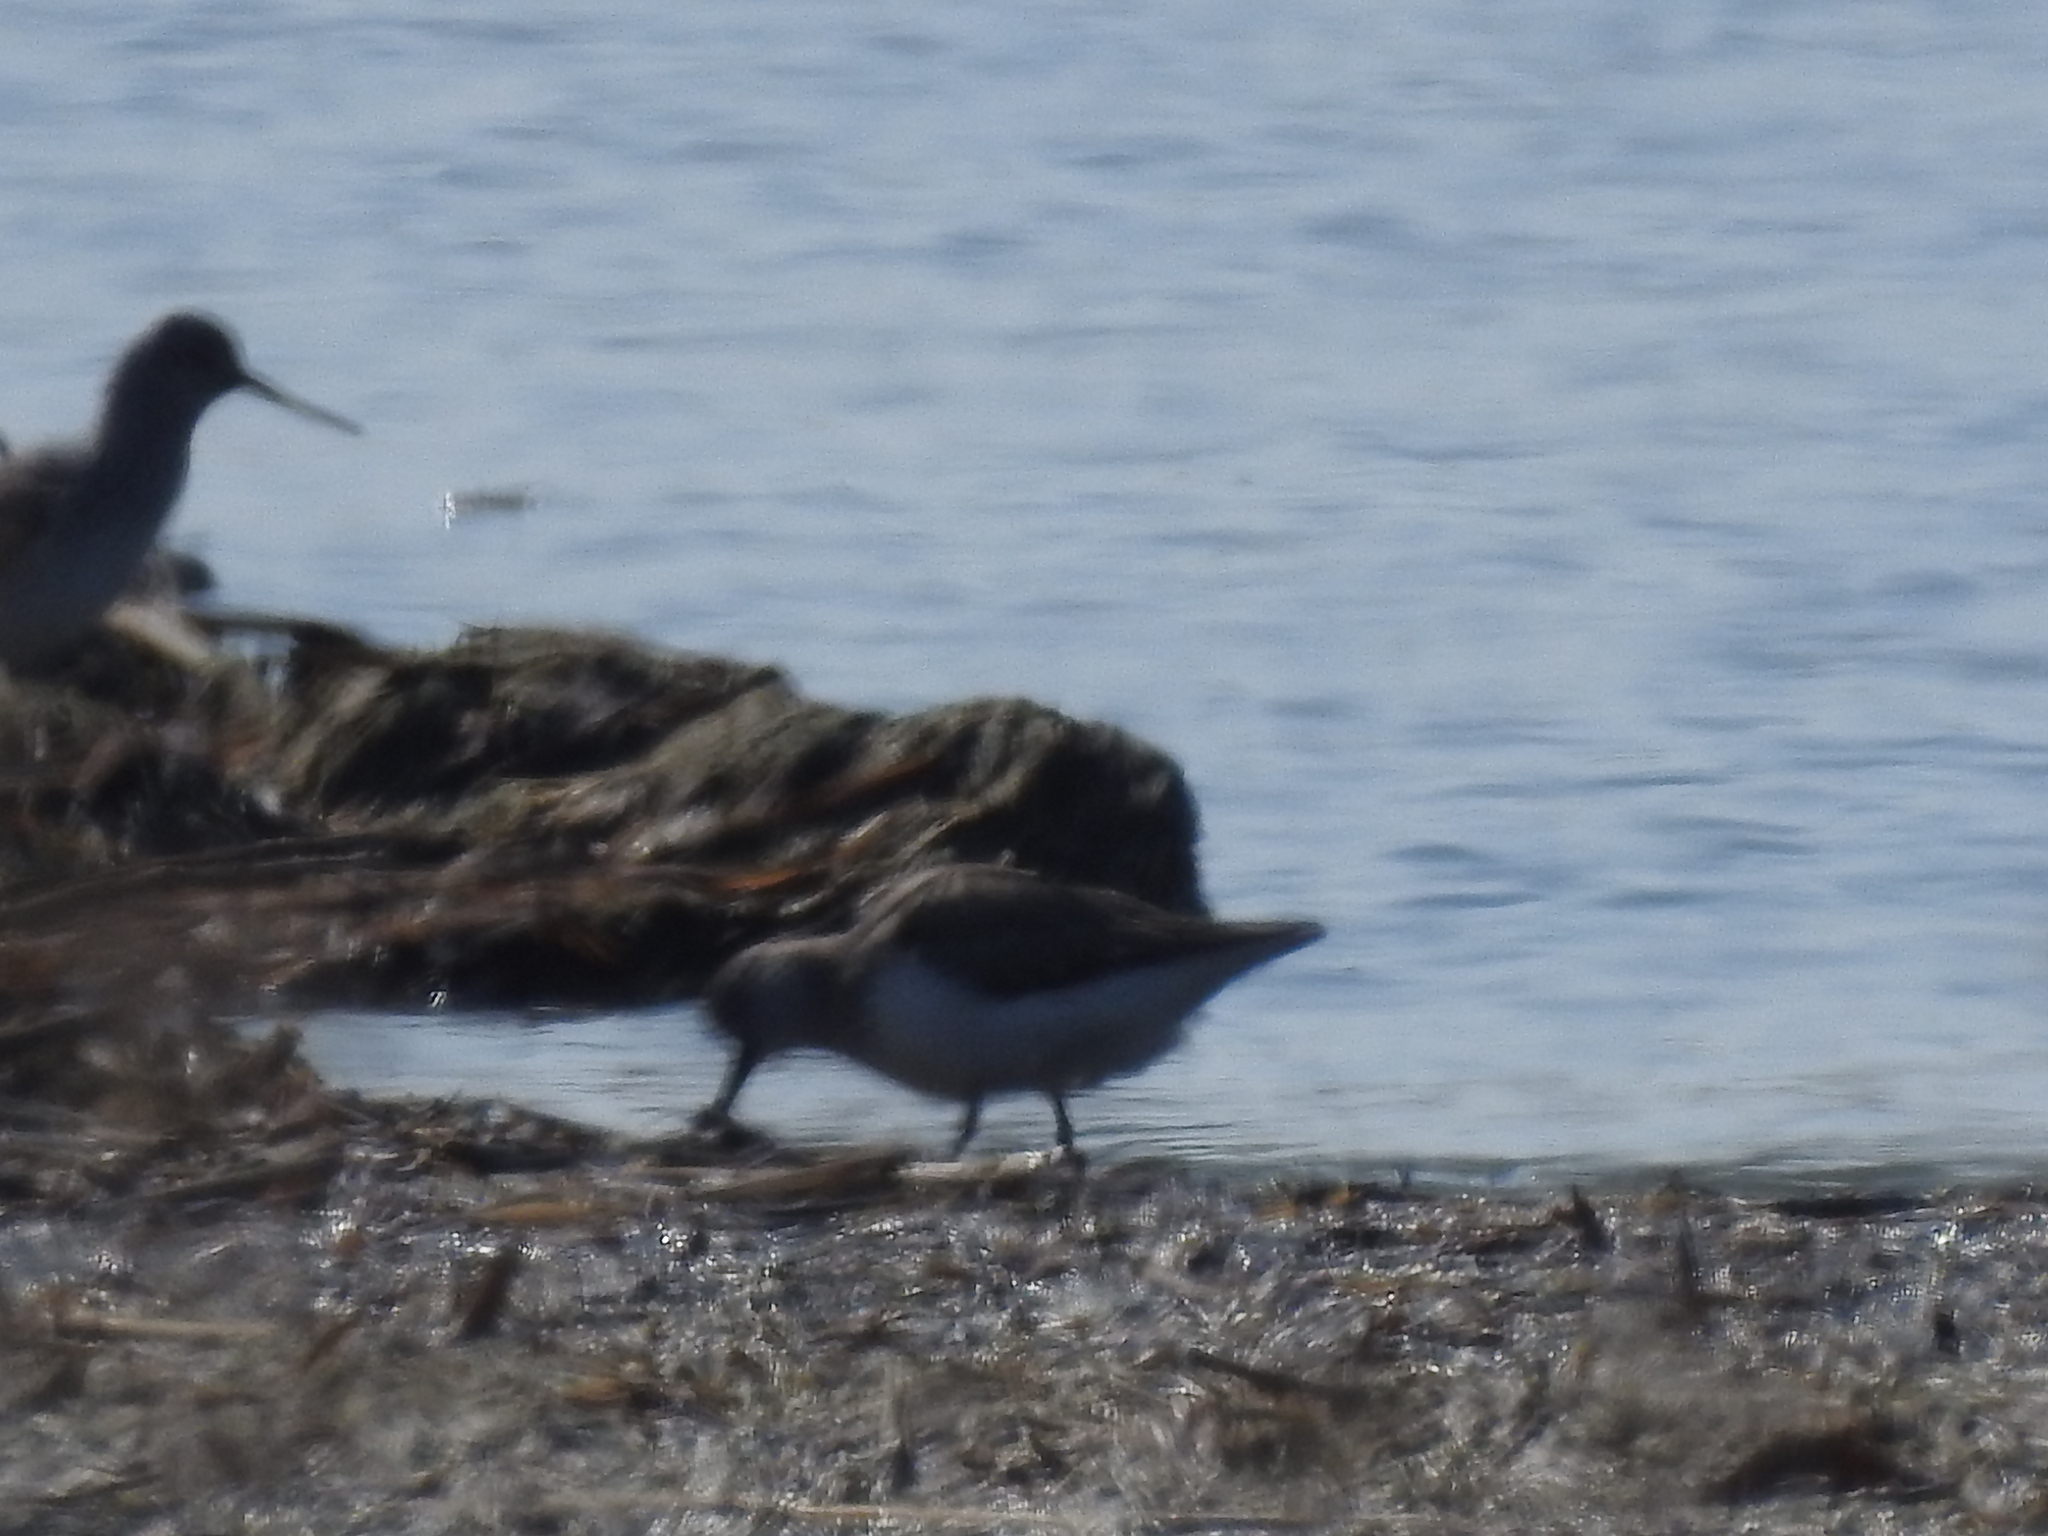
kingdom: Animalia
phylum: Chordata
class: Aves
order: Charadriiformes
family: Scolopacidae
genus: Xenus
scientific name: Xenus cinereus
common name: Terek sandpiper
